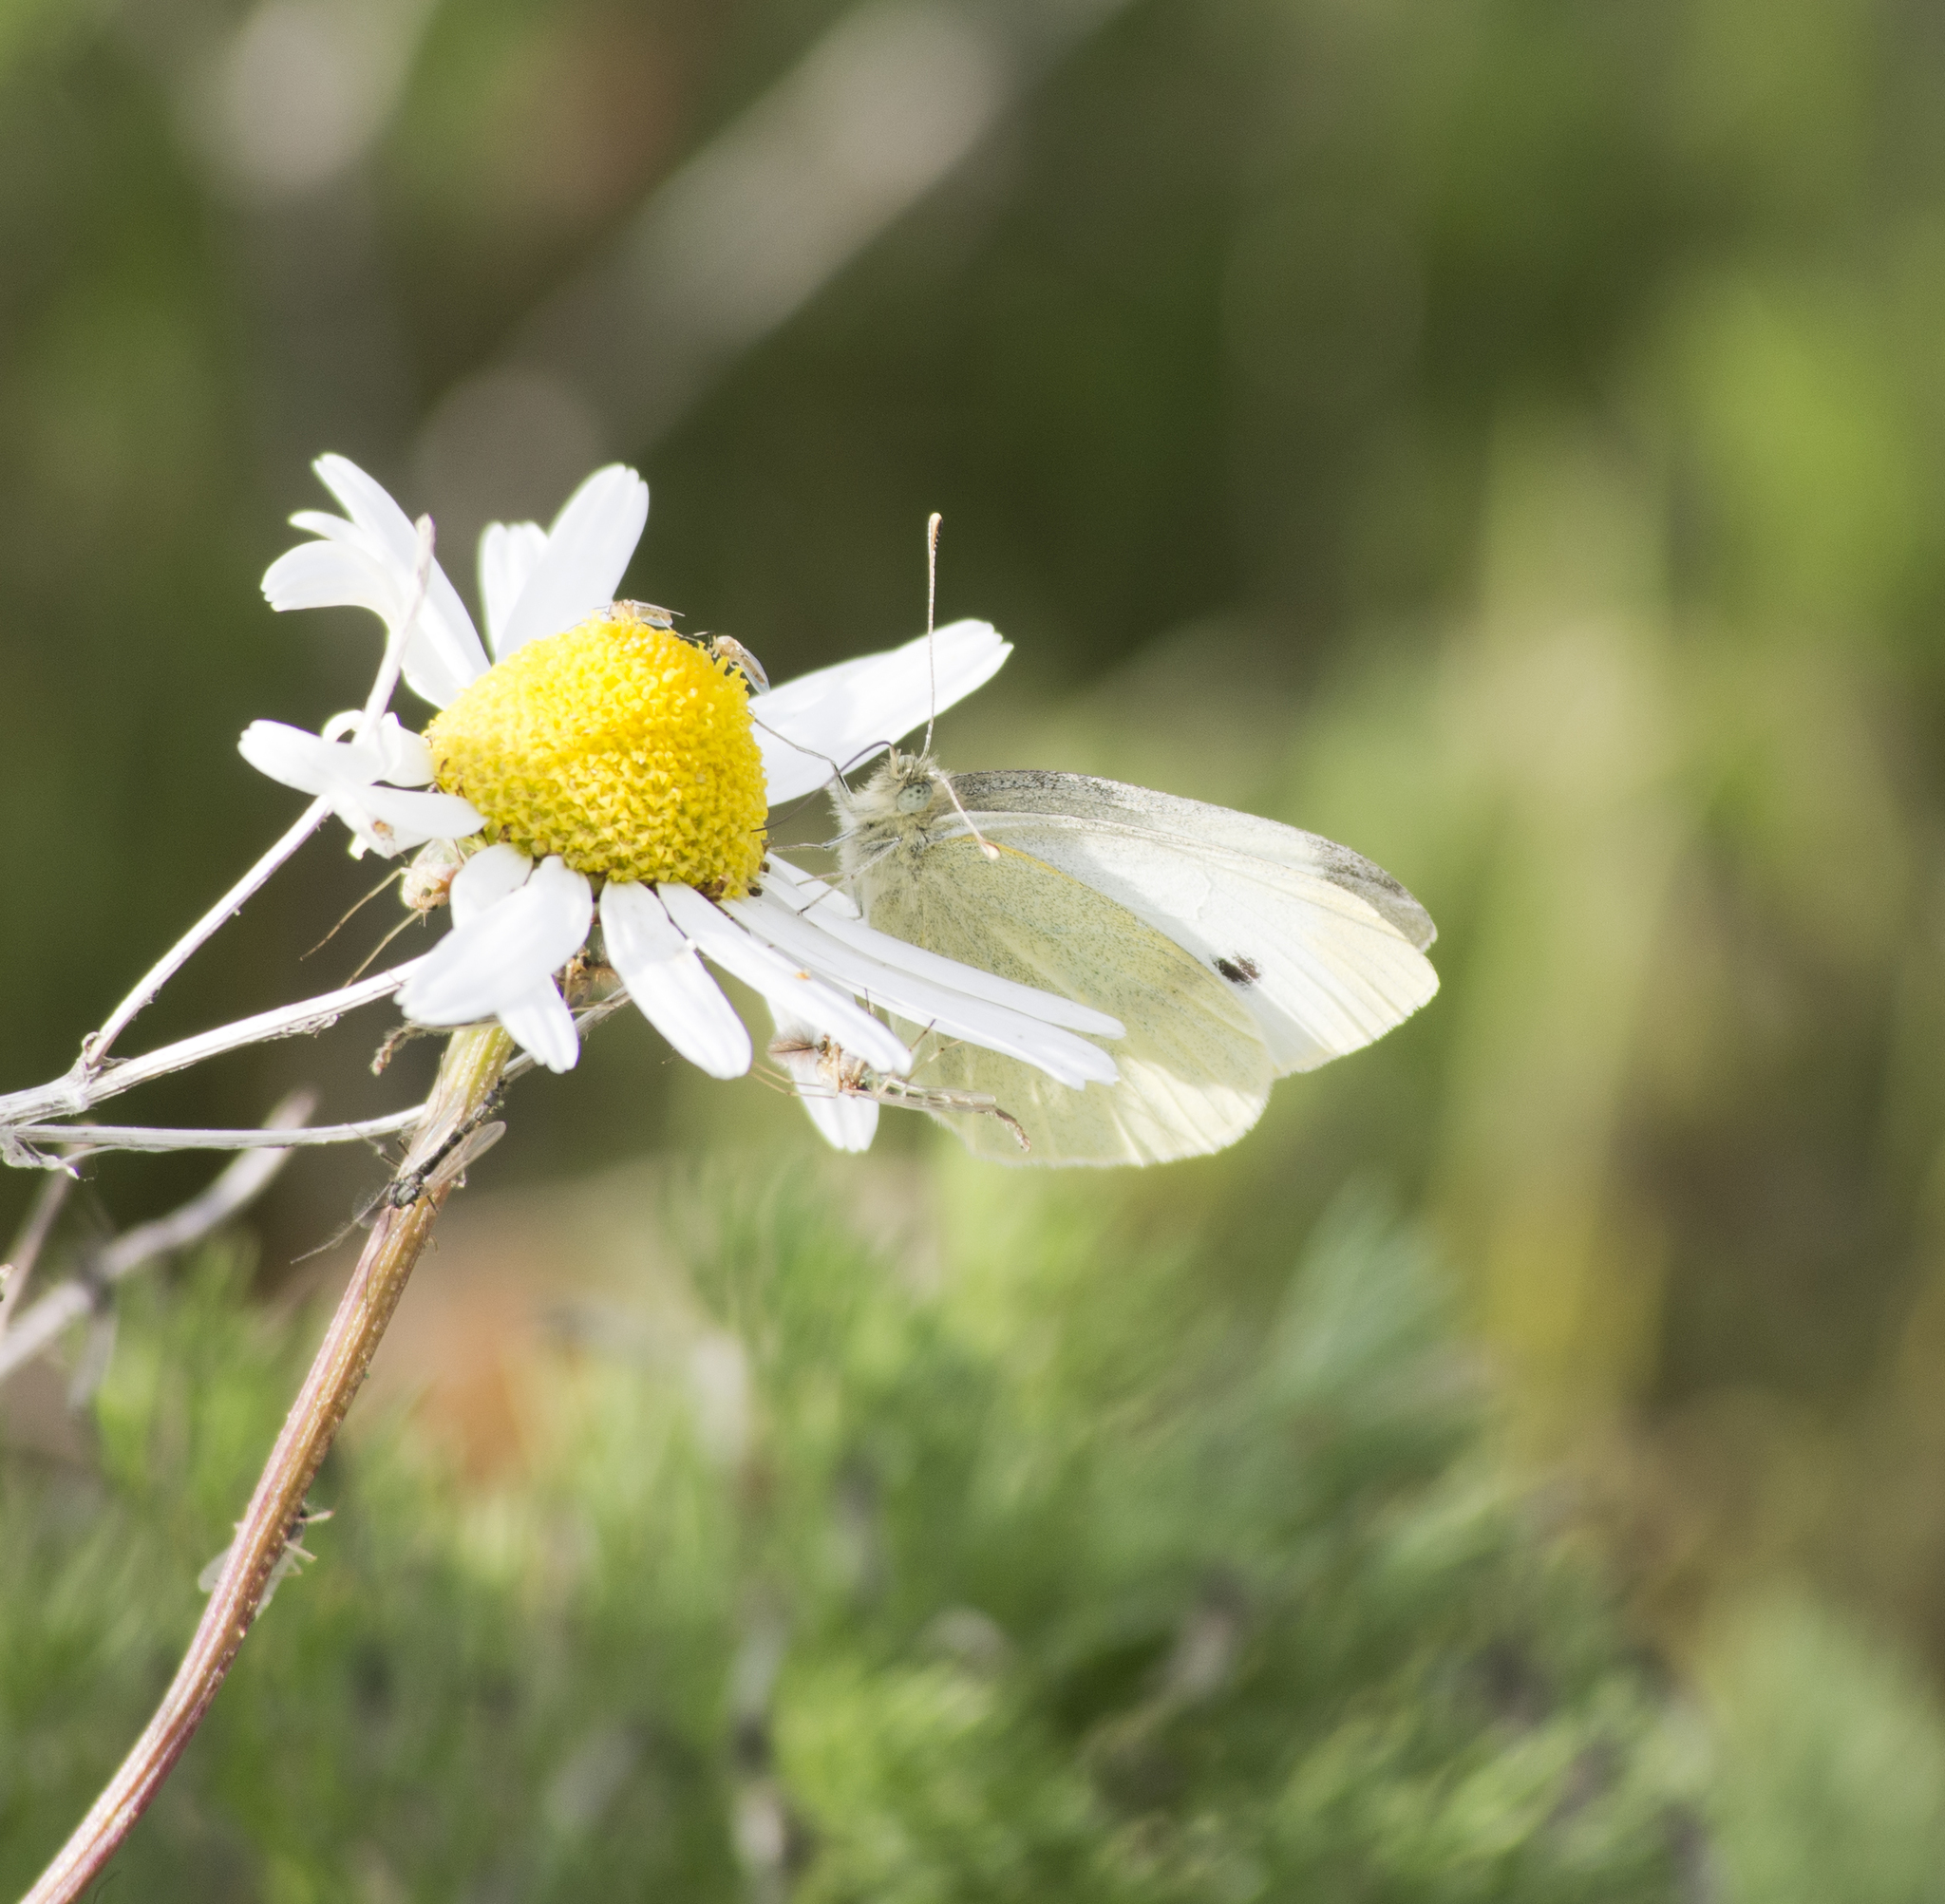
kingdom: Animalia
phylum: Arthropoda
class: Insecta
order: Lepidoptera
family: Pieridae
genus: Pieris
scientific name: Pieris rapae
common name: Small white
